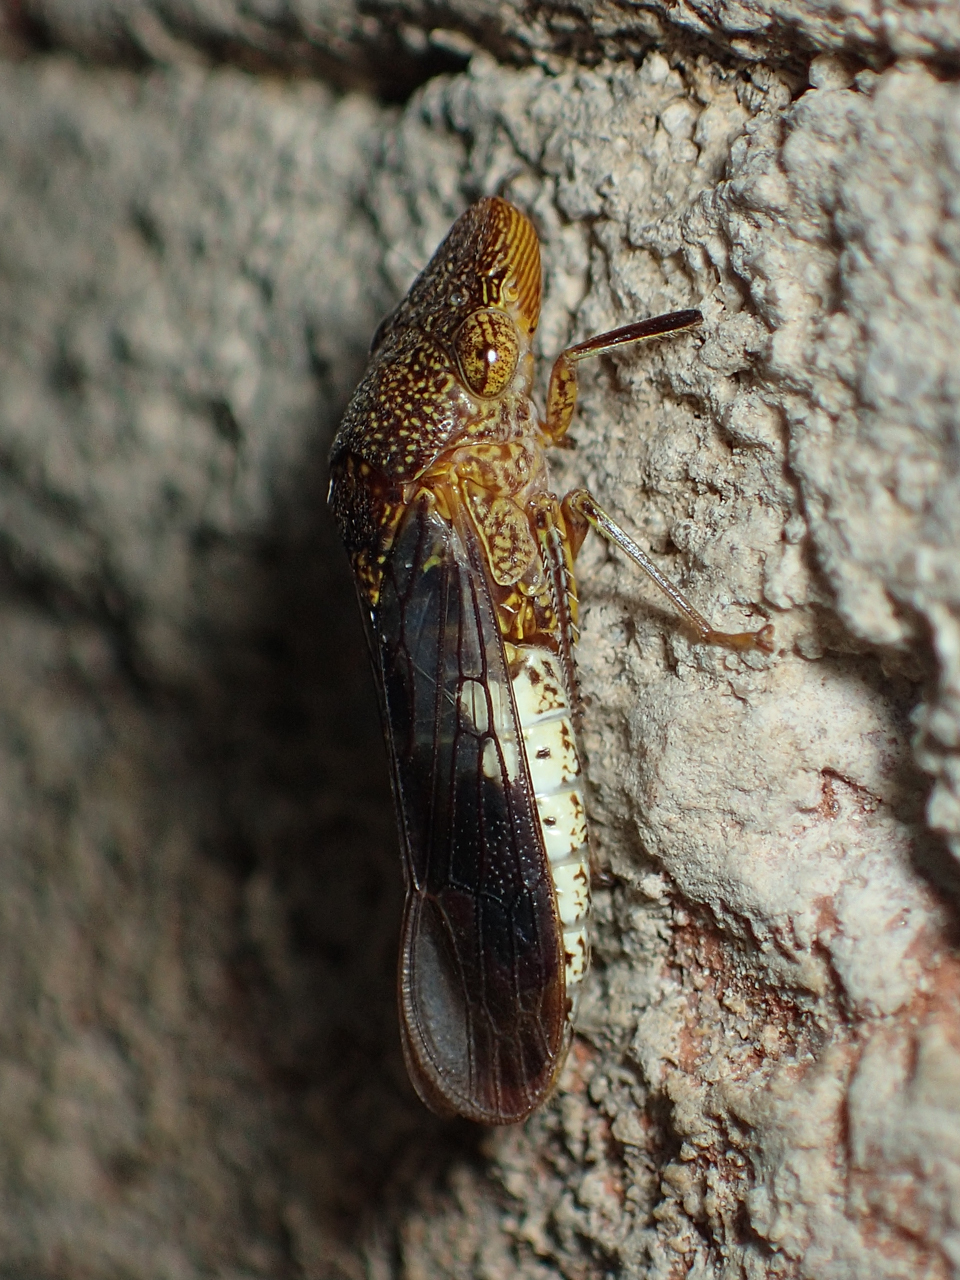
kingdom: Animalia
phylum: Arthropoda
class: Insecta
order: Hemiptera
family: Cicadellidae
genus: Homalodisca
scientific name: Homalodisca vitripennis
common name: Glassy-winged sharpshooter
